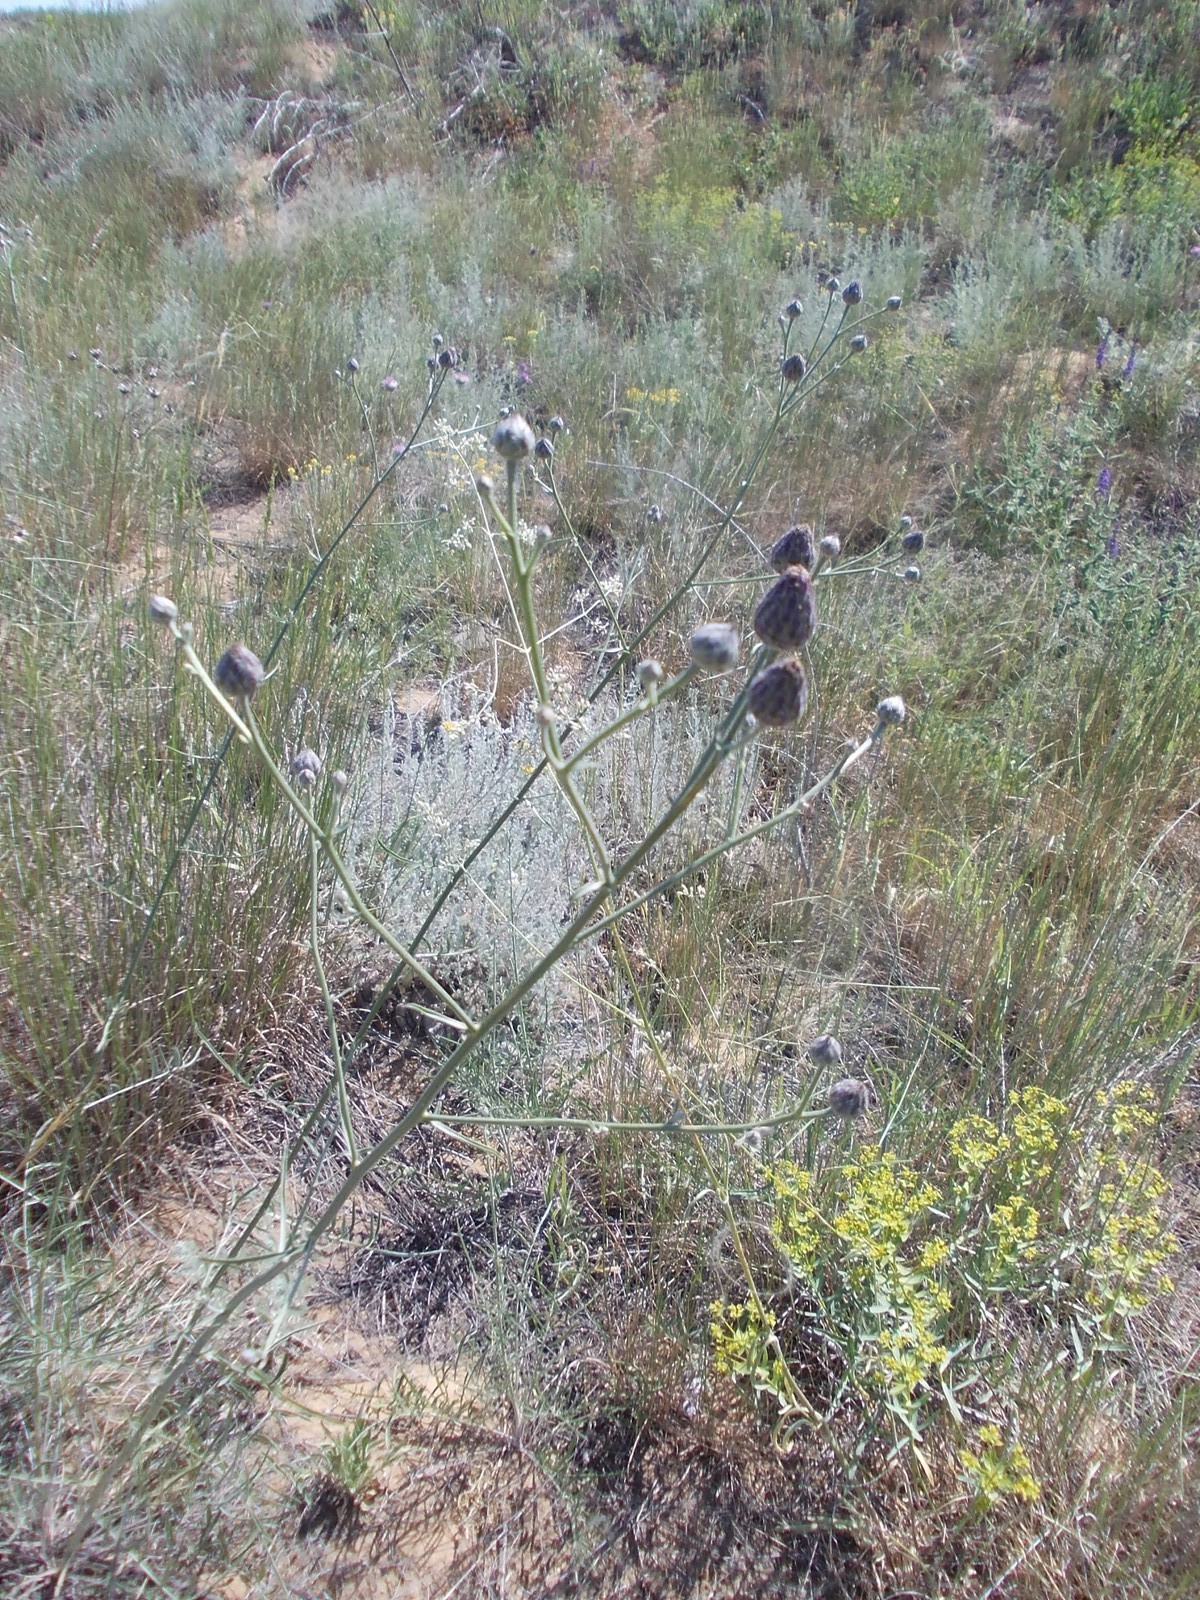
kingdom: Plantae
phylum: Tracheophyta
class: Magnoliopsida
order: Asterales
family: Asteraceae
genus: Centaurea
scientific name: Centaurea adpressa
